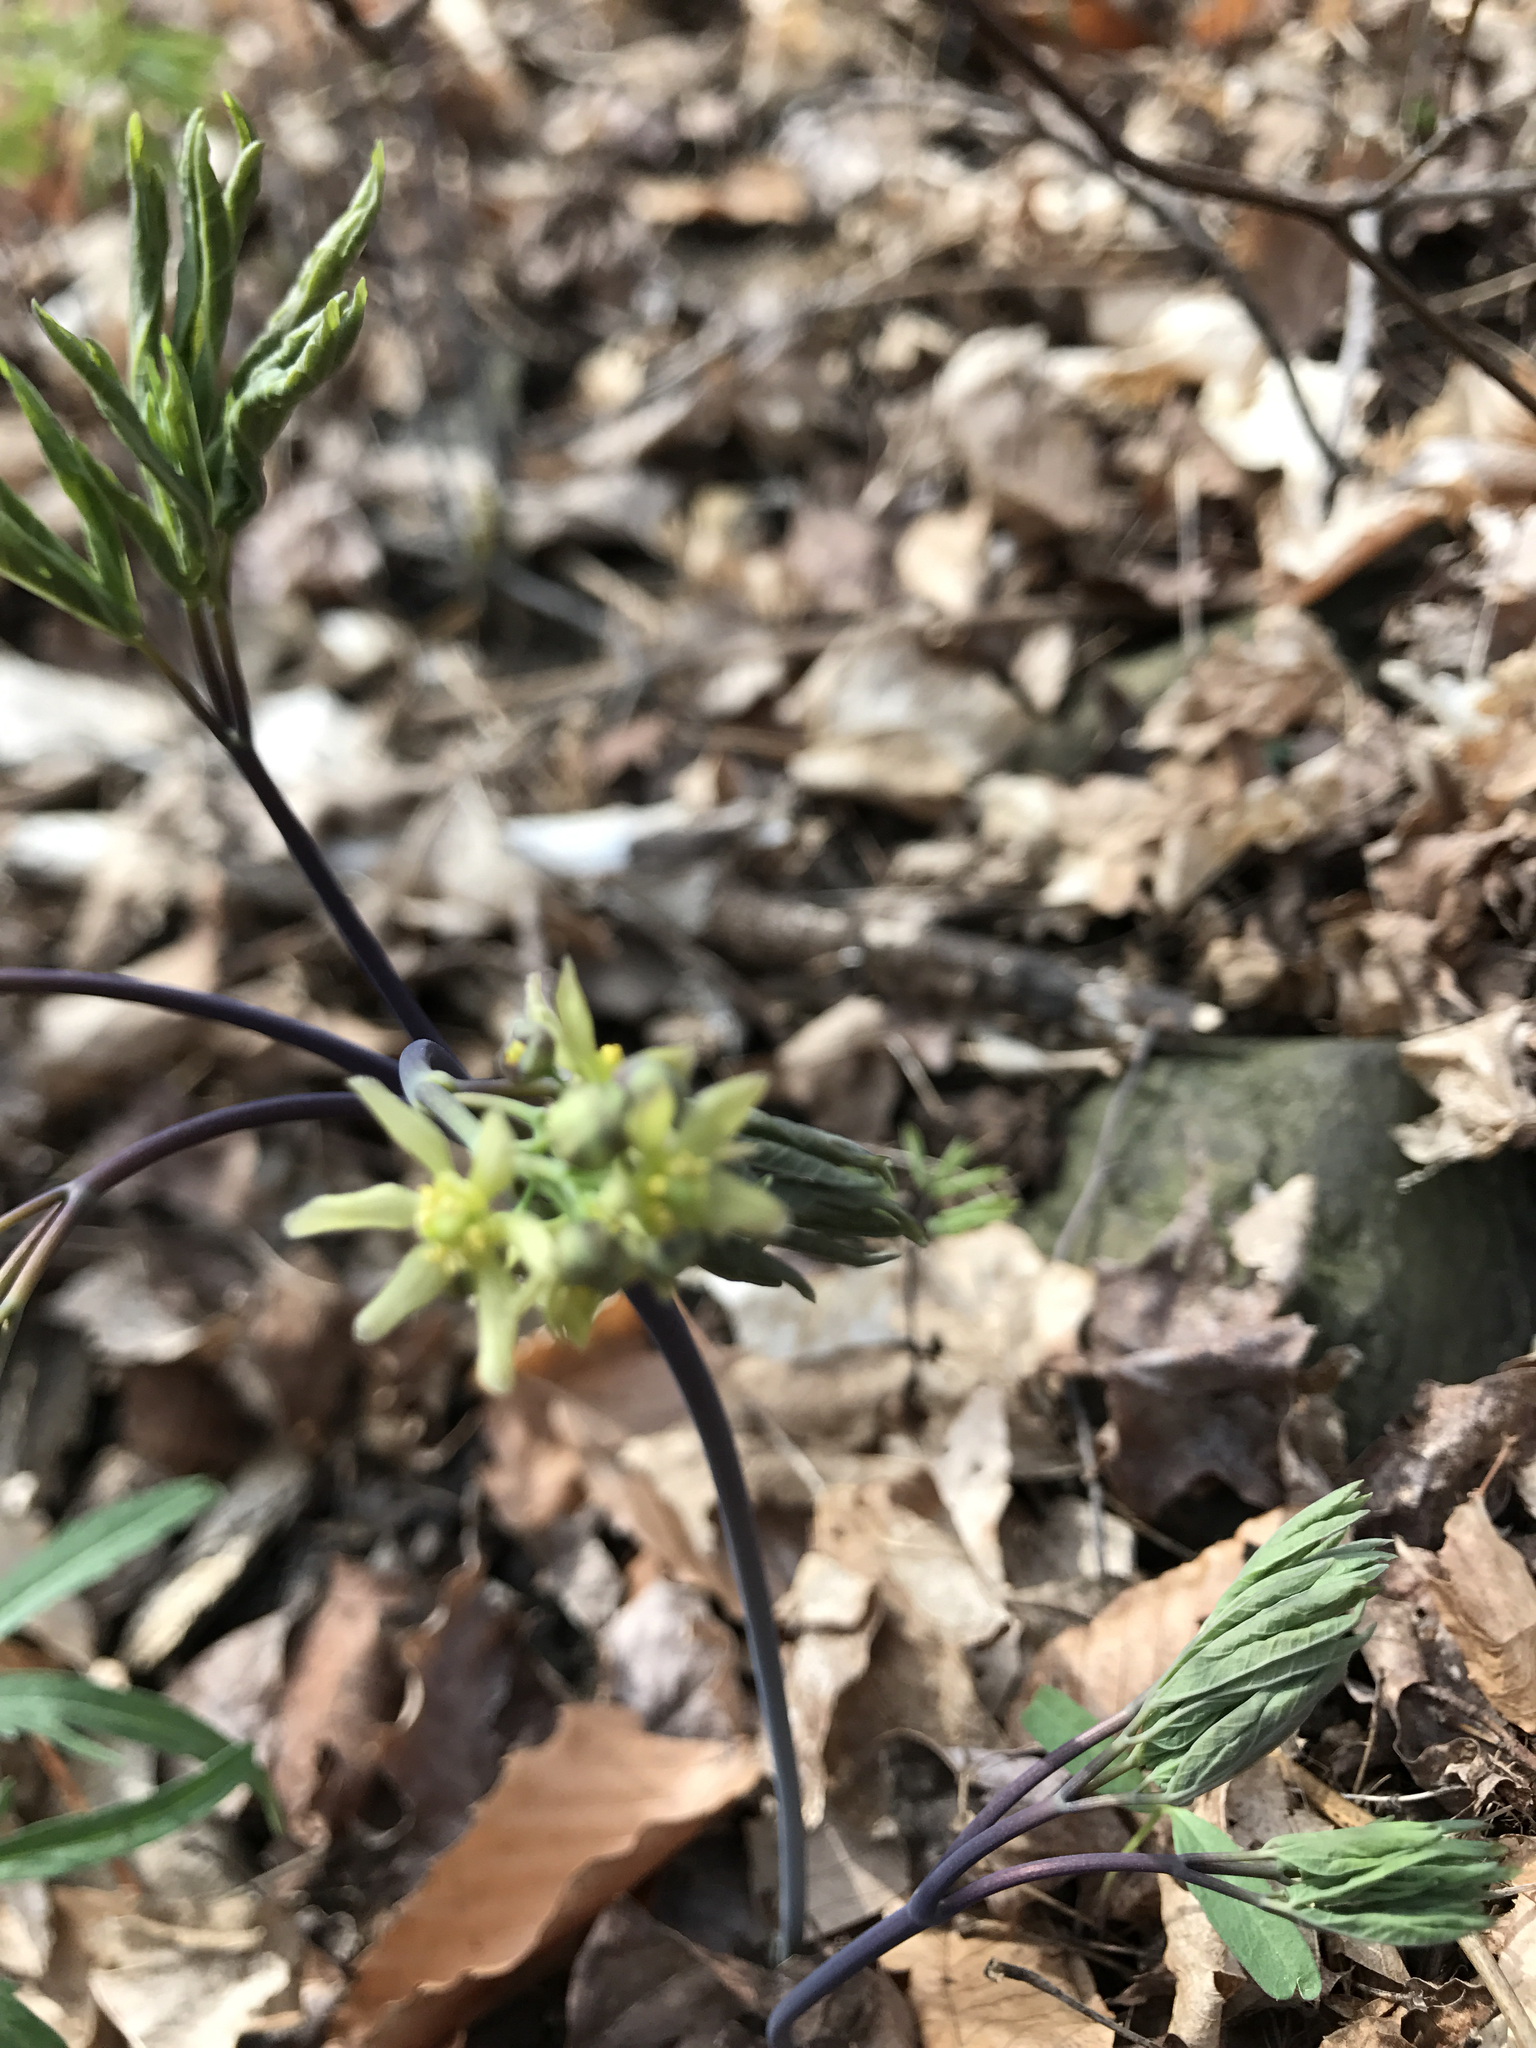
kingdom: Plantae
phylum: Tracheophyta
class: Magnoliopsida
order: Ranunculales
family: Berberidaceae
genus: Caulophyllum
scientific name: Caulophyllum giganteum
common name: Blue cohosh
